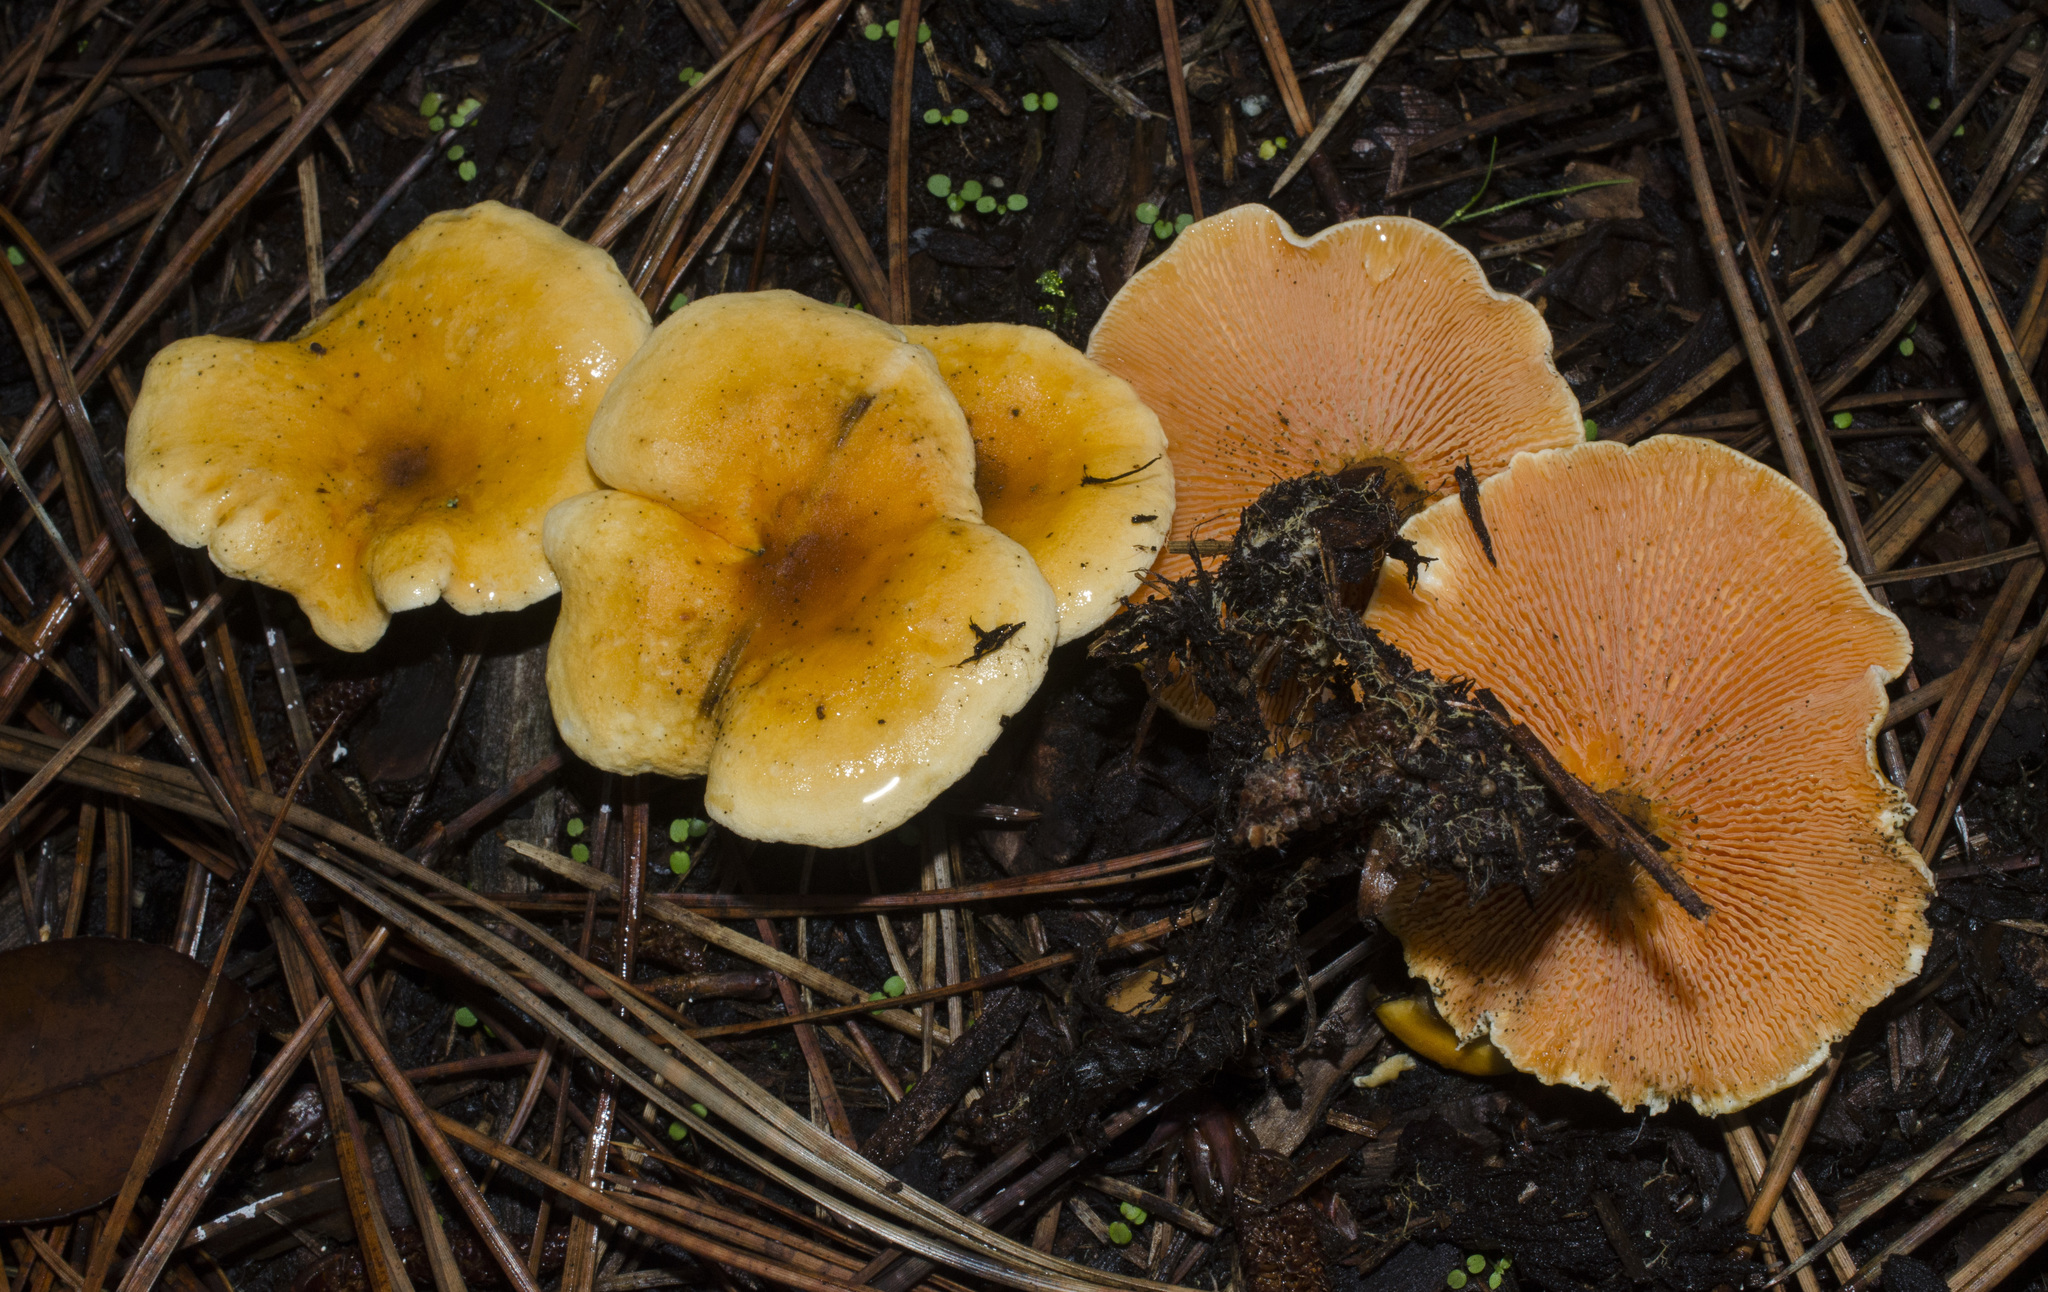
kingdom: Fungi
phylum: Basidiomycota
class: Agaricomycetes
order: Boletales
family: Hygrophoropsidaceae
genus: Hygrophoropsis
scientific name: Hygrophoropsis aurantiaca
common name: False chanterelle
